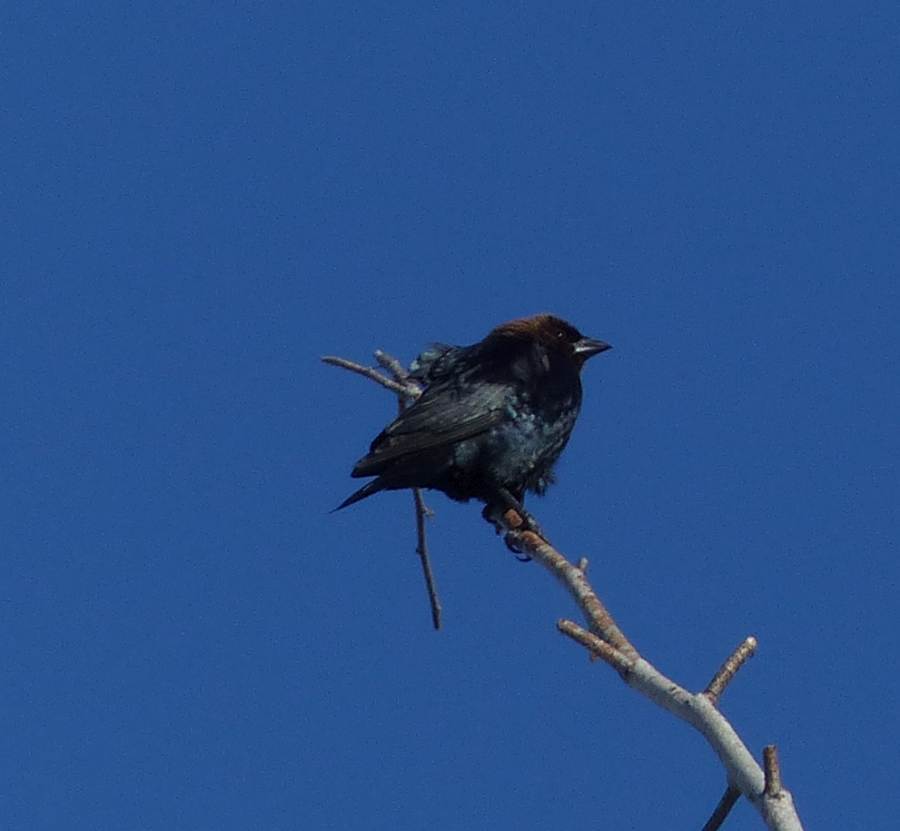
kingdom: Animalia
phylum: Chordata
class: Aves
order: Passeriformes
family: Icteridae
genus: Molothrus
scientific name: Molothrus ater
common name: Brown-headed cowbird
